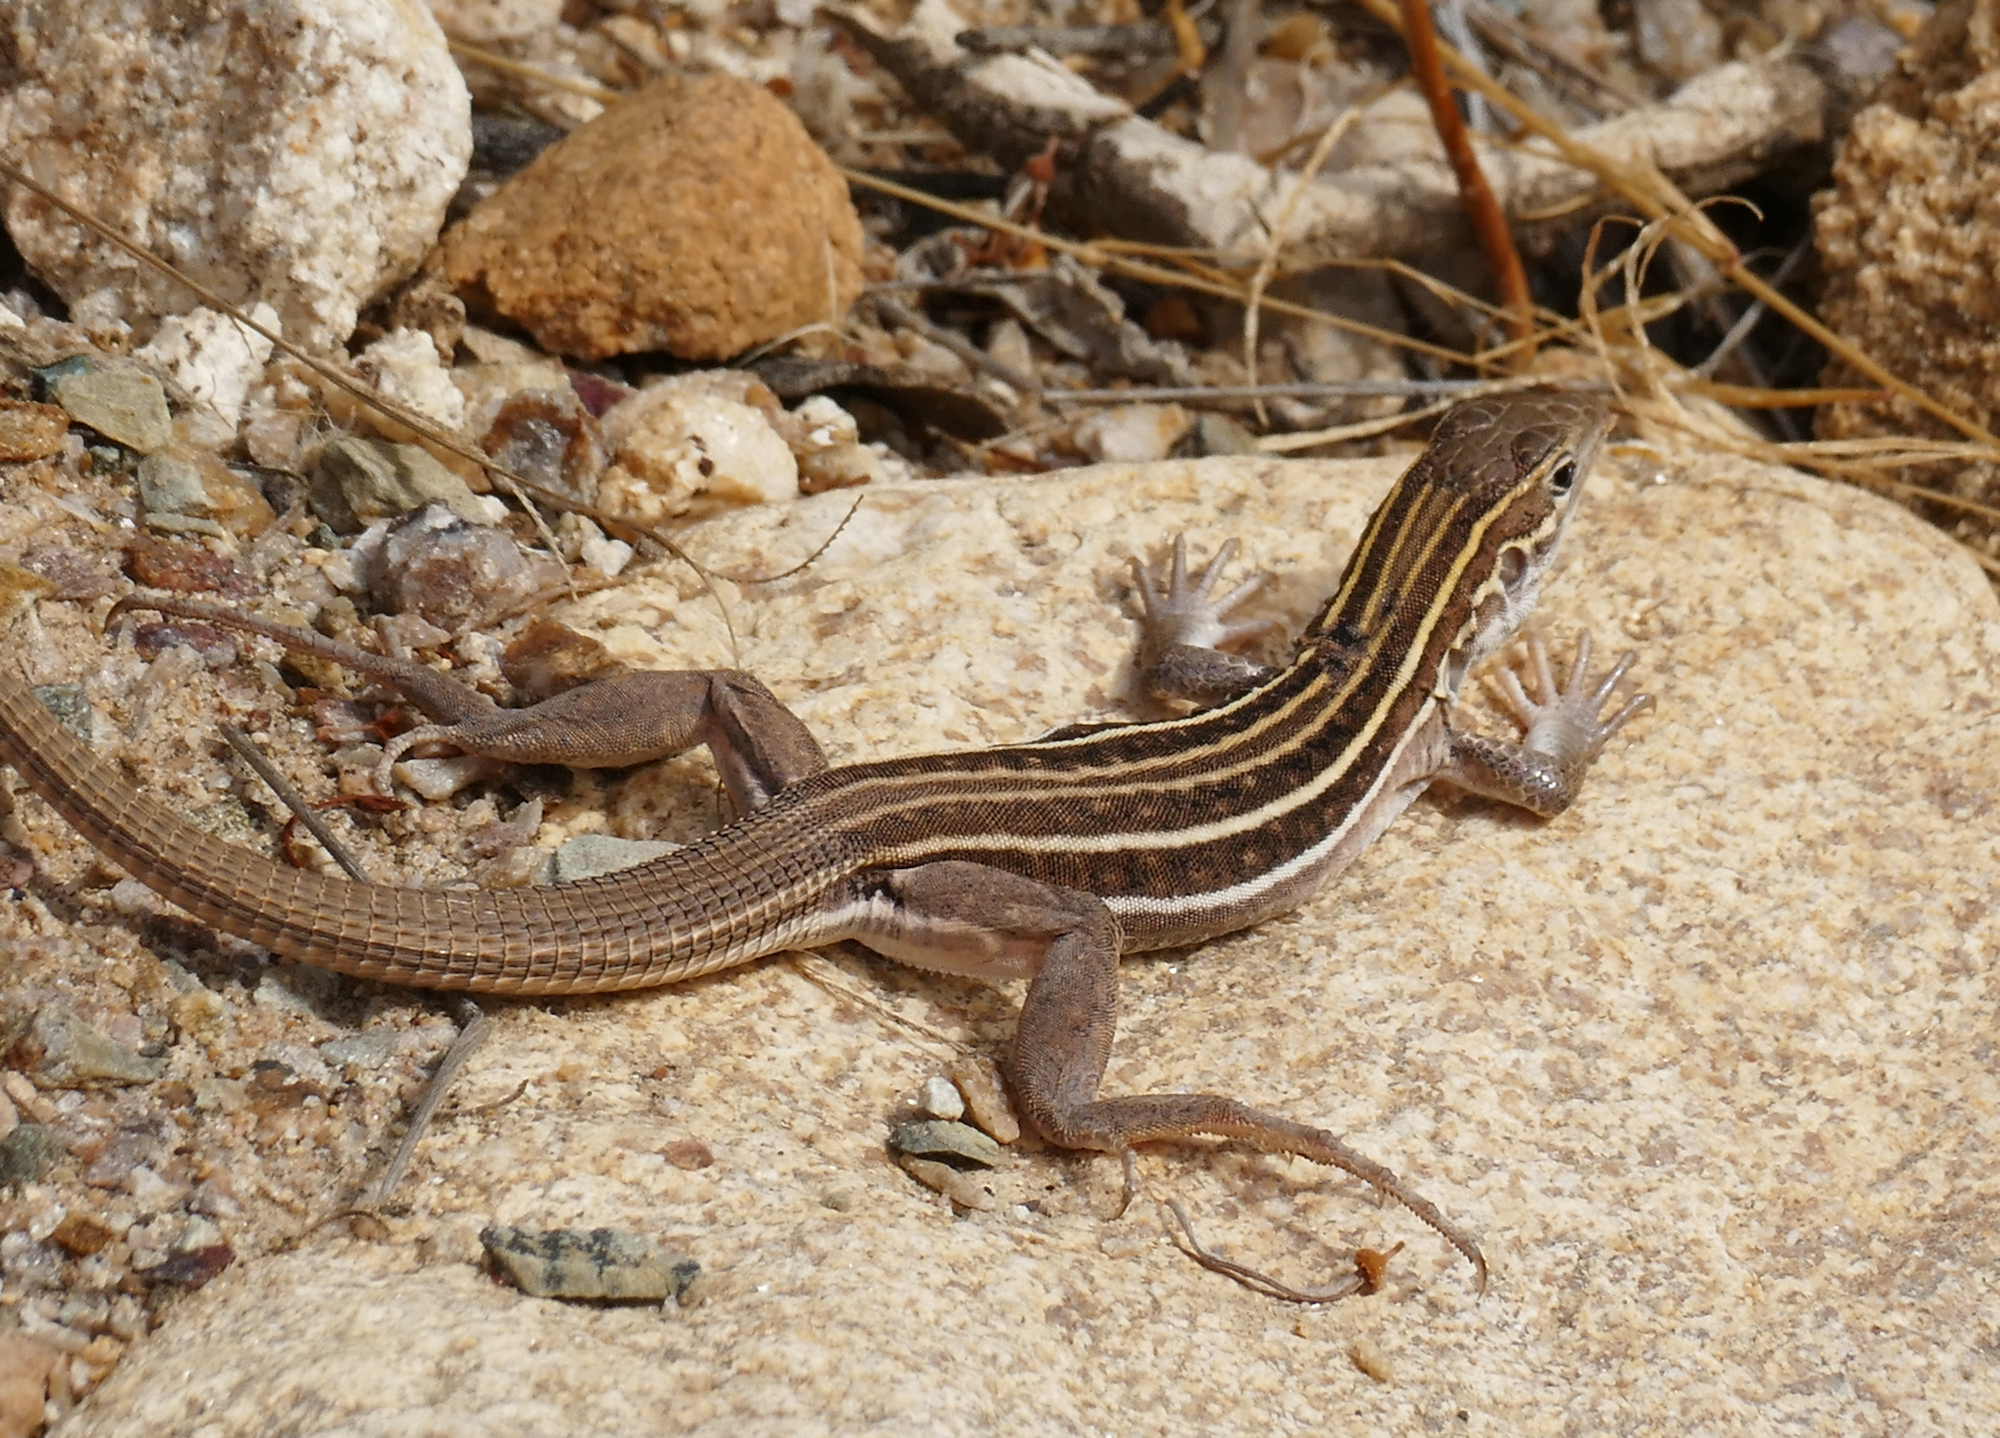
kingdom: Animalia
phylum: Chordata
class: Squamata
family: Teiidae
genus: Aspidoscelis
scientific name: Aspidoscelis sonorae
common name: Sonoran spotted whiptail
